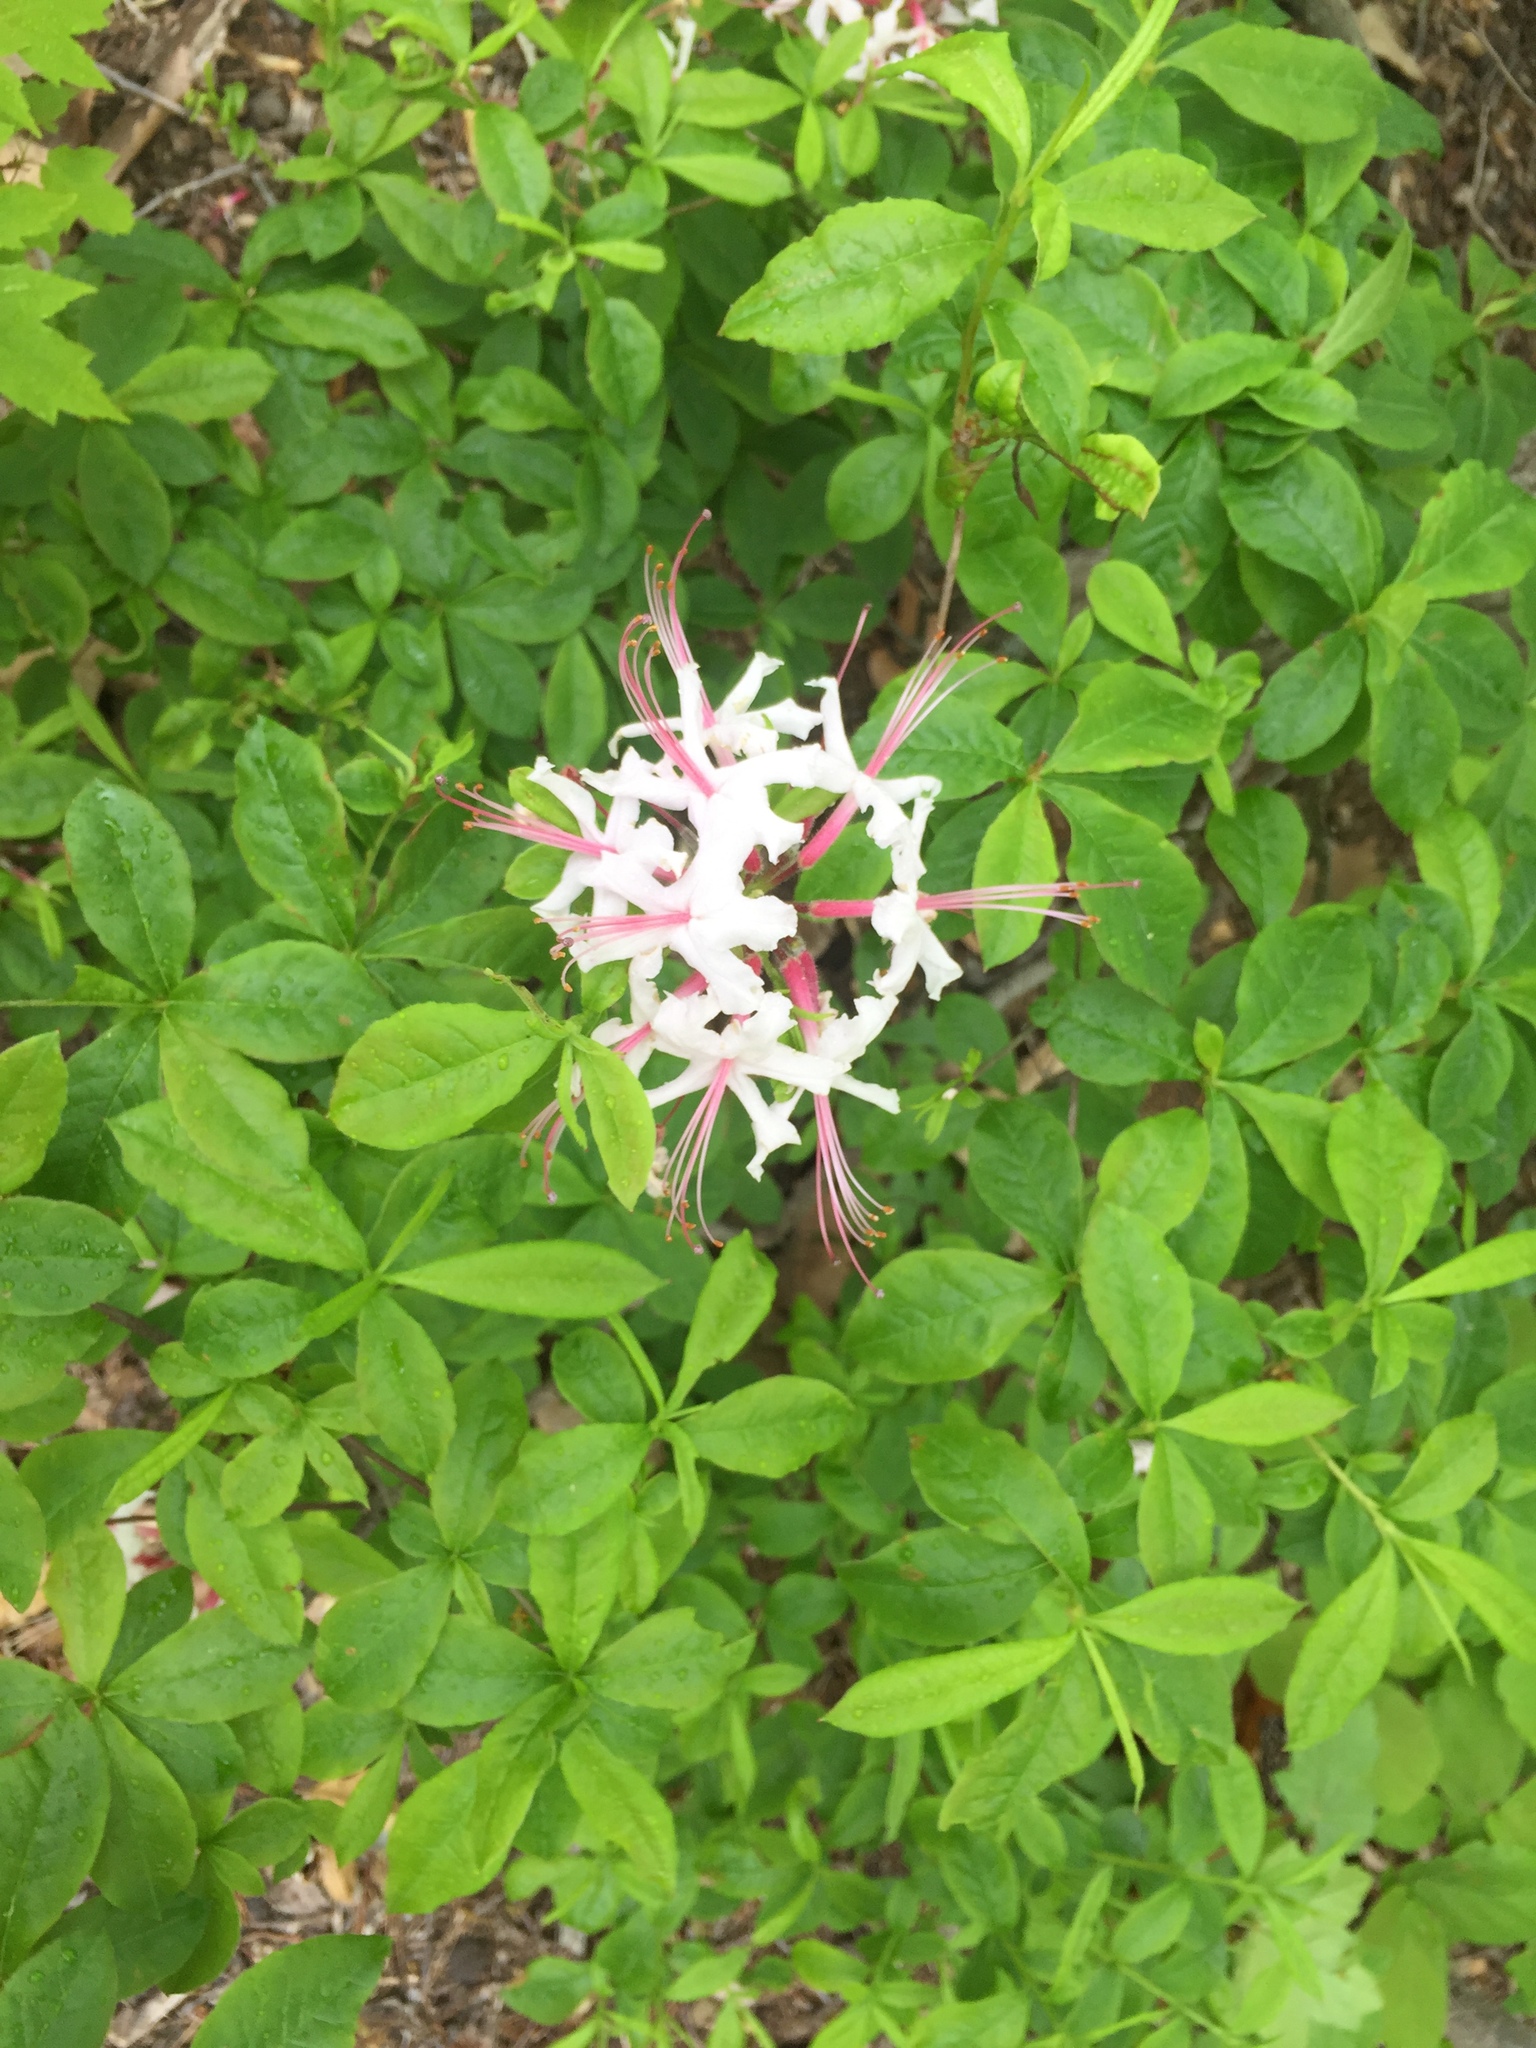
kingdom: Plantae
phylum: Tracheophyta
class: Magnoliopsida
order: Ericales
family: Ericaceae
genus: Rhododendron
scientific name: Rhododendron periclymenoides
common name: Election-pink
